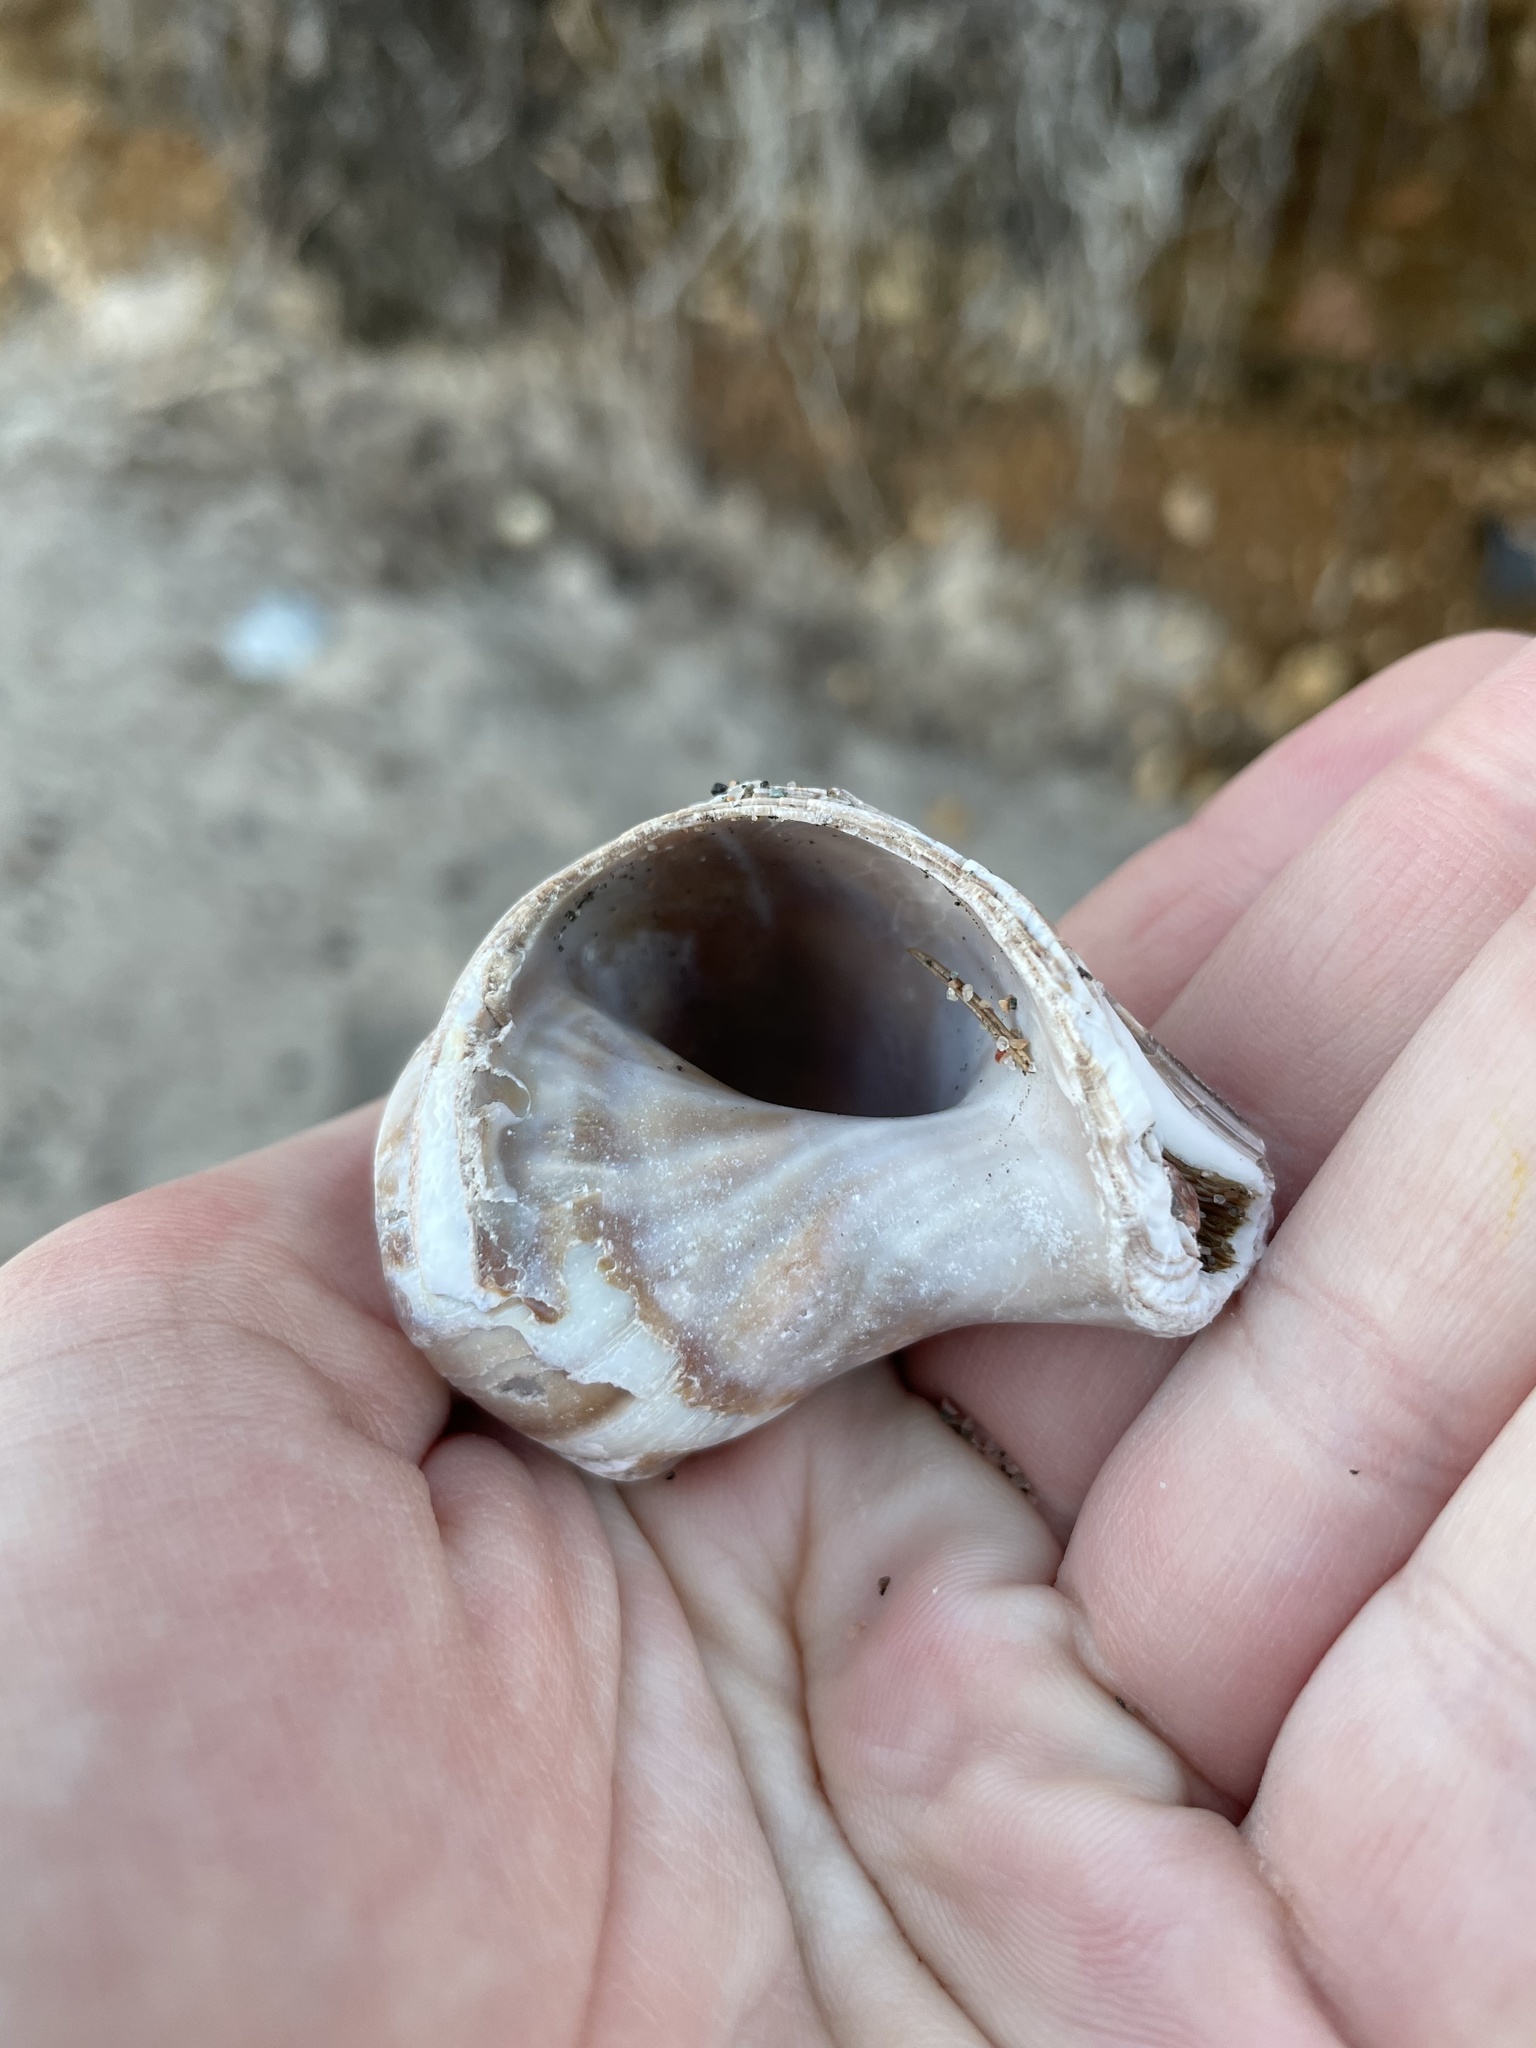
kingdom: Animalia
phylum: Mollusca
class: Gastropoda
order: Littorinimorpha
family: Naticidae
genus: Euspira
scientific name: Euspira heros
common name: Common northern moonsnail
